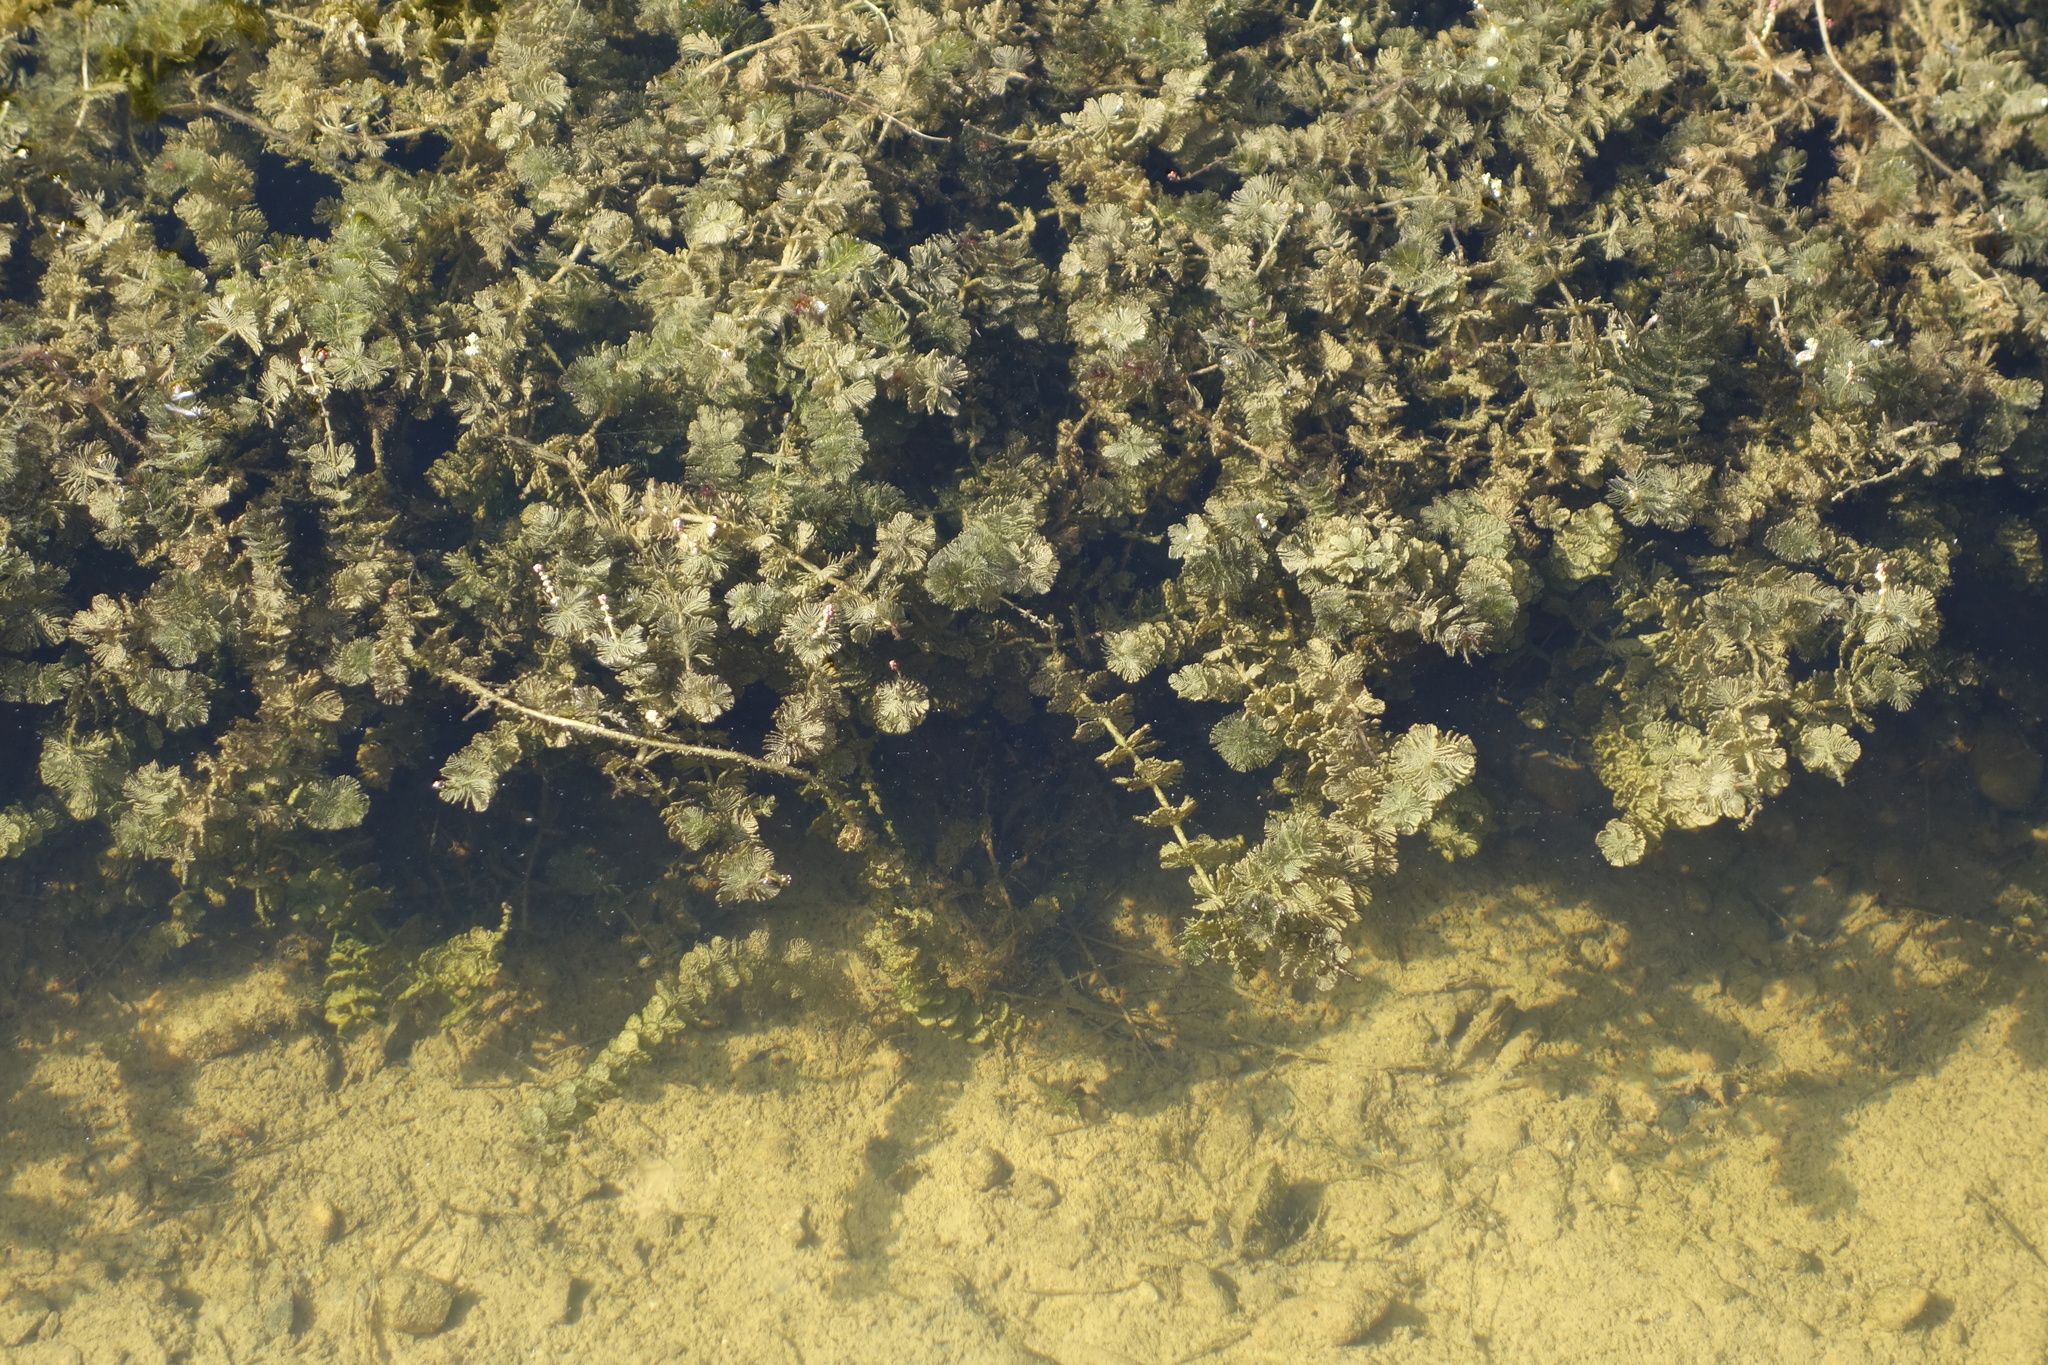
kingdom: Plantae
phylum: Tracheophyta
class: Magnoliopsida
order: Saxifragales
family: Haloragaceae
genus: Myriophyllum
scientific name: Myriophyllum spicatum
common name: Spiked water-milfoil
